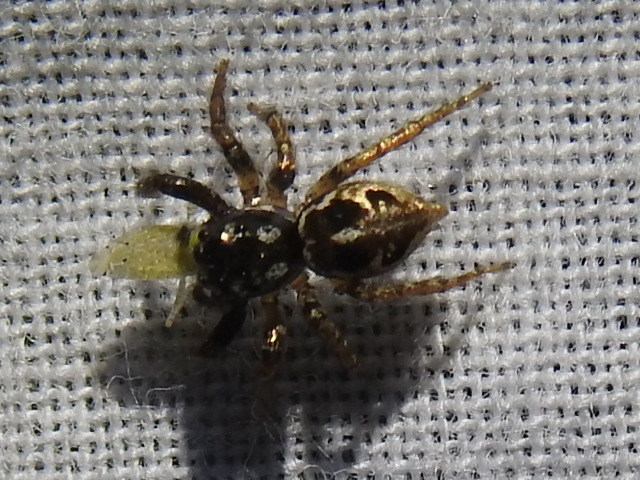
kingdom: Animalia
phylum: Arthropoda
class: Arachnida
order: Araneae
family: Salticidae
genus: Anasaitis
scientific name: Anasaitis canosa
